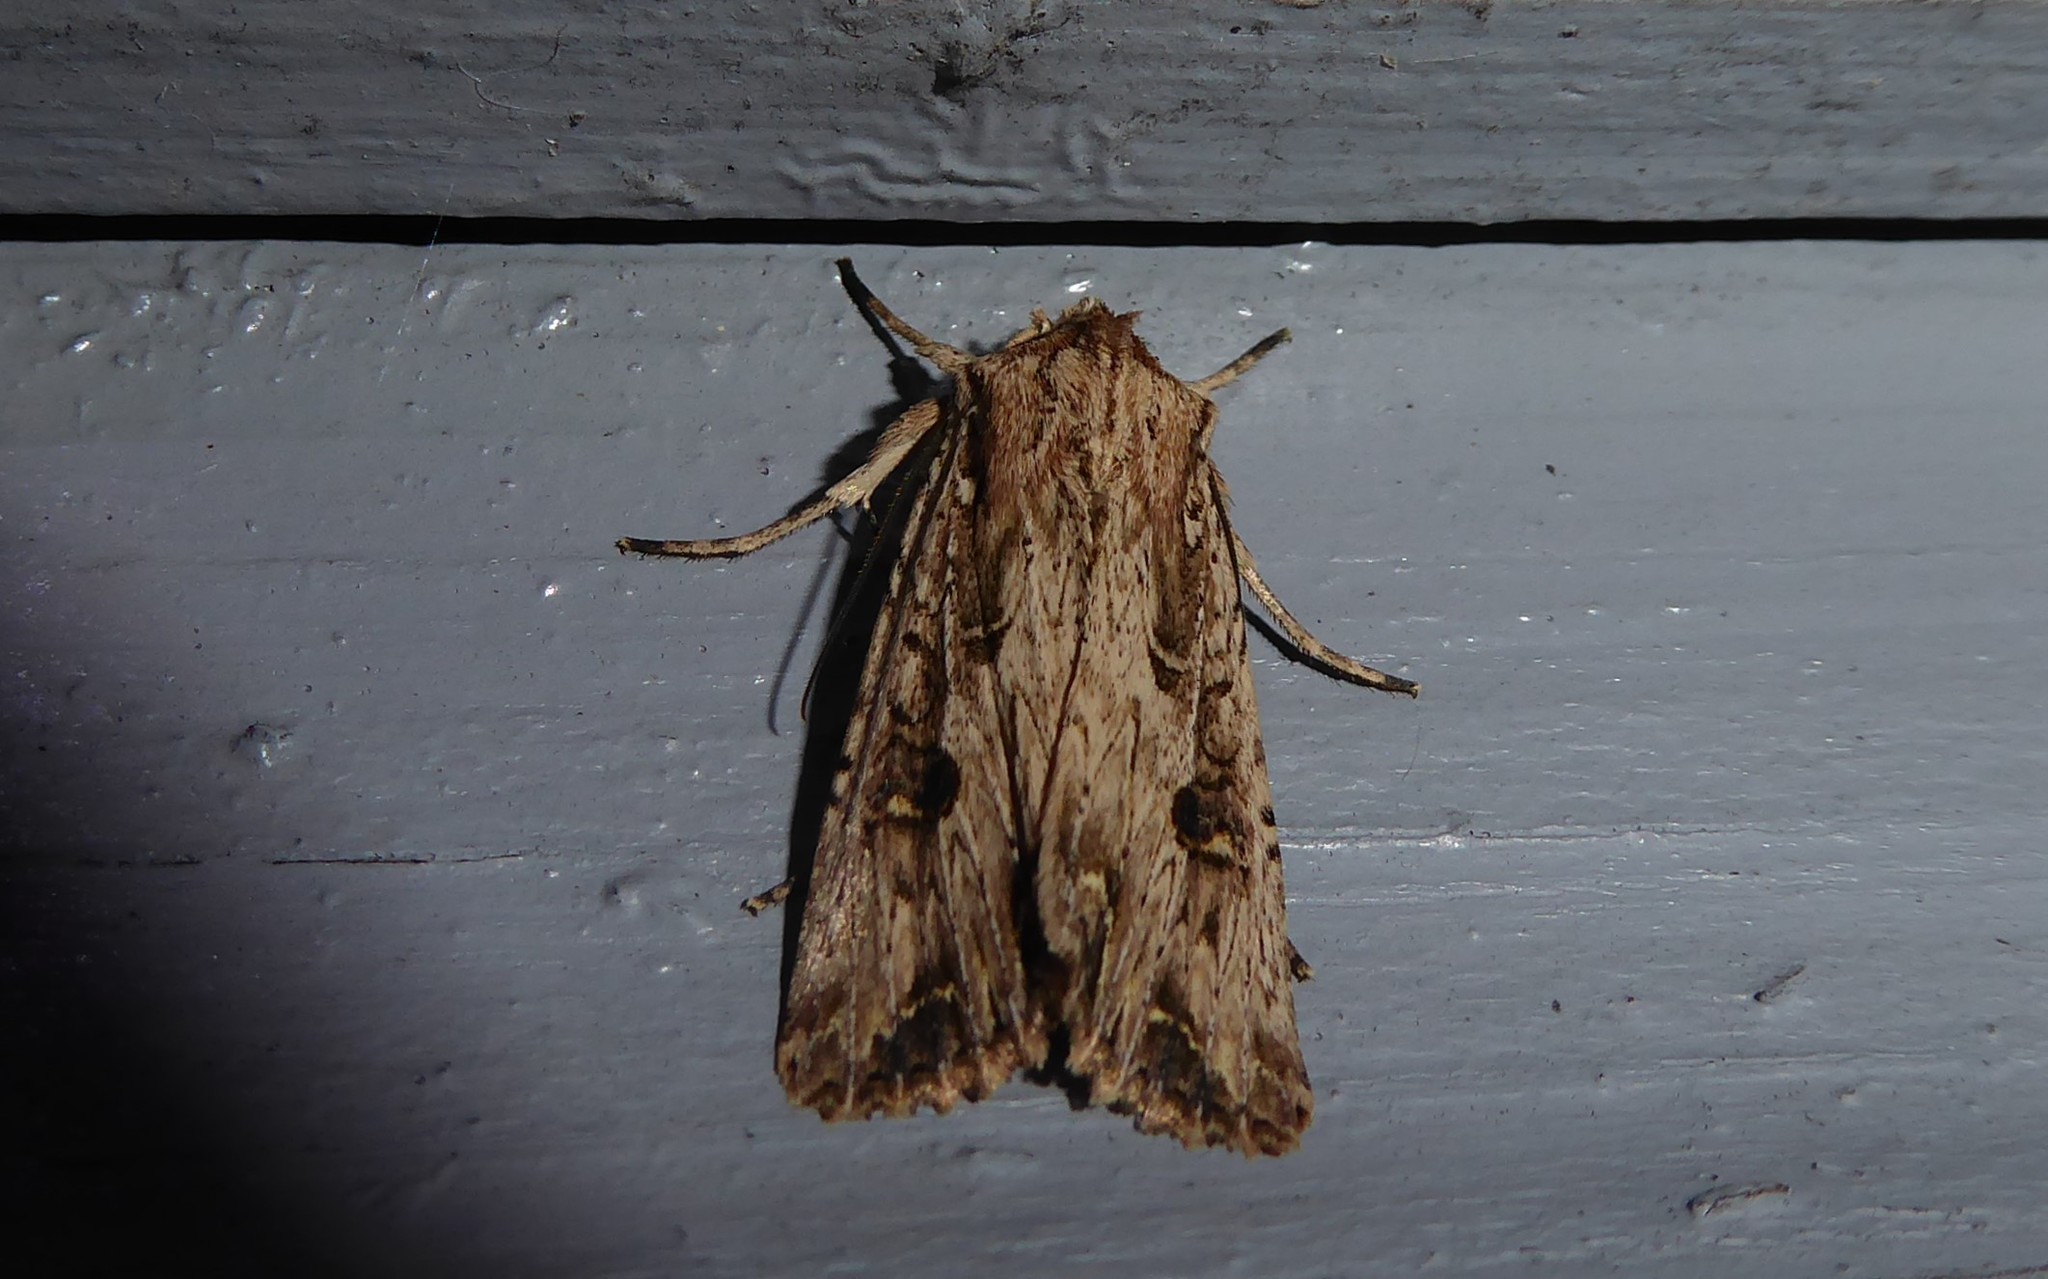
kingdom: Animalia
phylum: Arthropoda
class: Insecta
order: Lepidoptera
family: Noctuidae
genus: Ichneutica
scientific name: Ichneutica lignana
